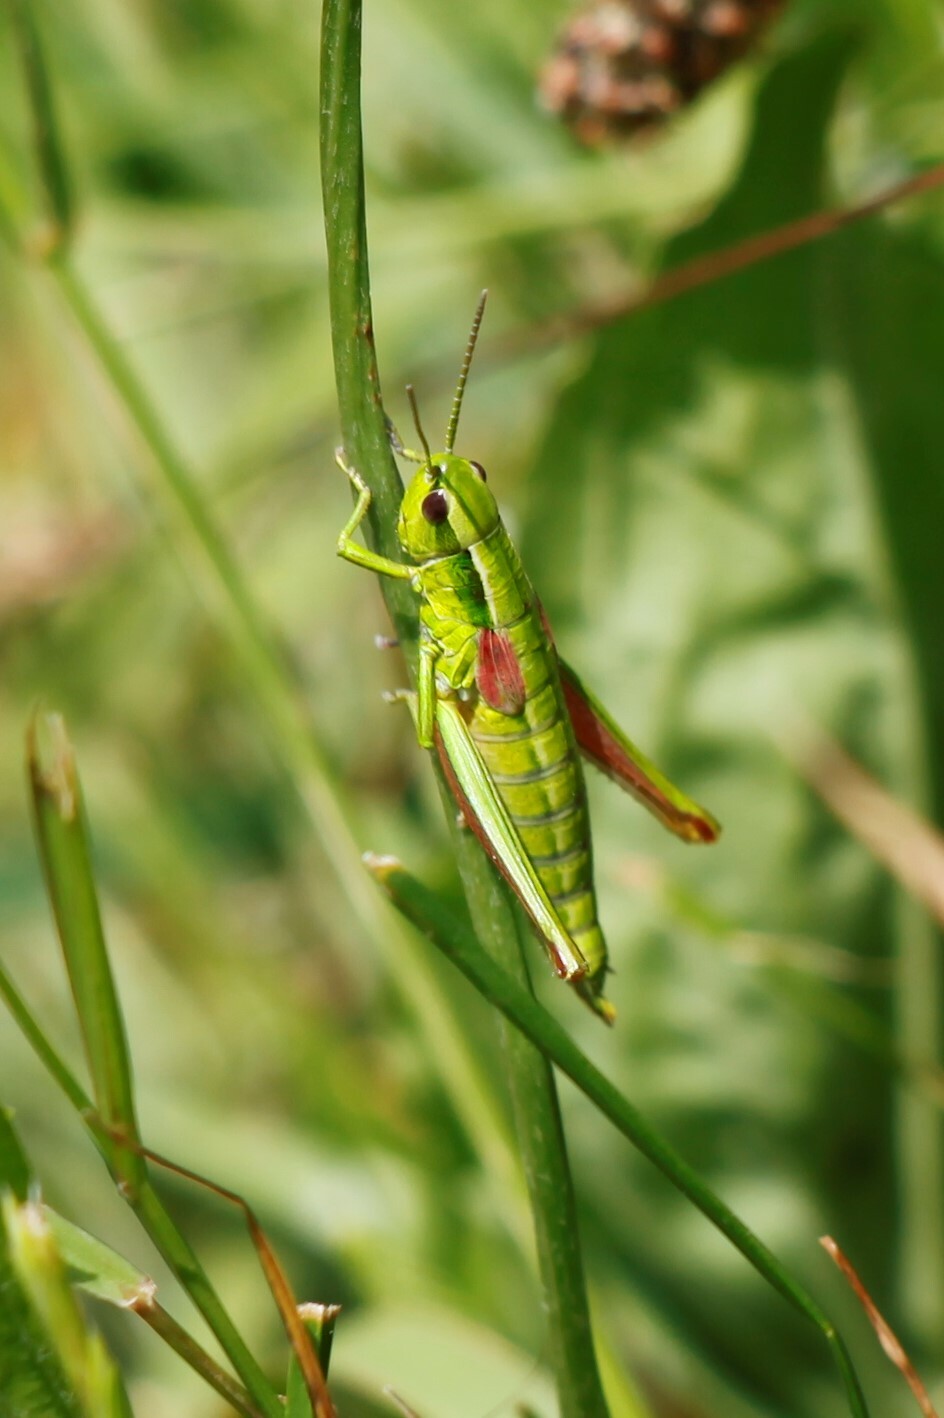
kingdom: Animalia
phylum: Arthropoda
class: Insecta
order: Orthoptera
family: Acrididae
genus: Euthystira
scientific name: Euthystira brachyptera
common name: Small gold grasshopper
